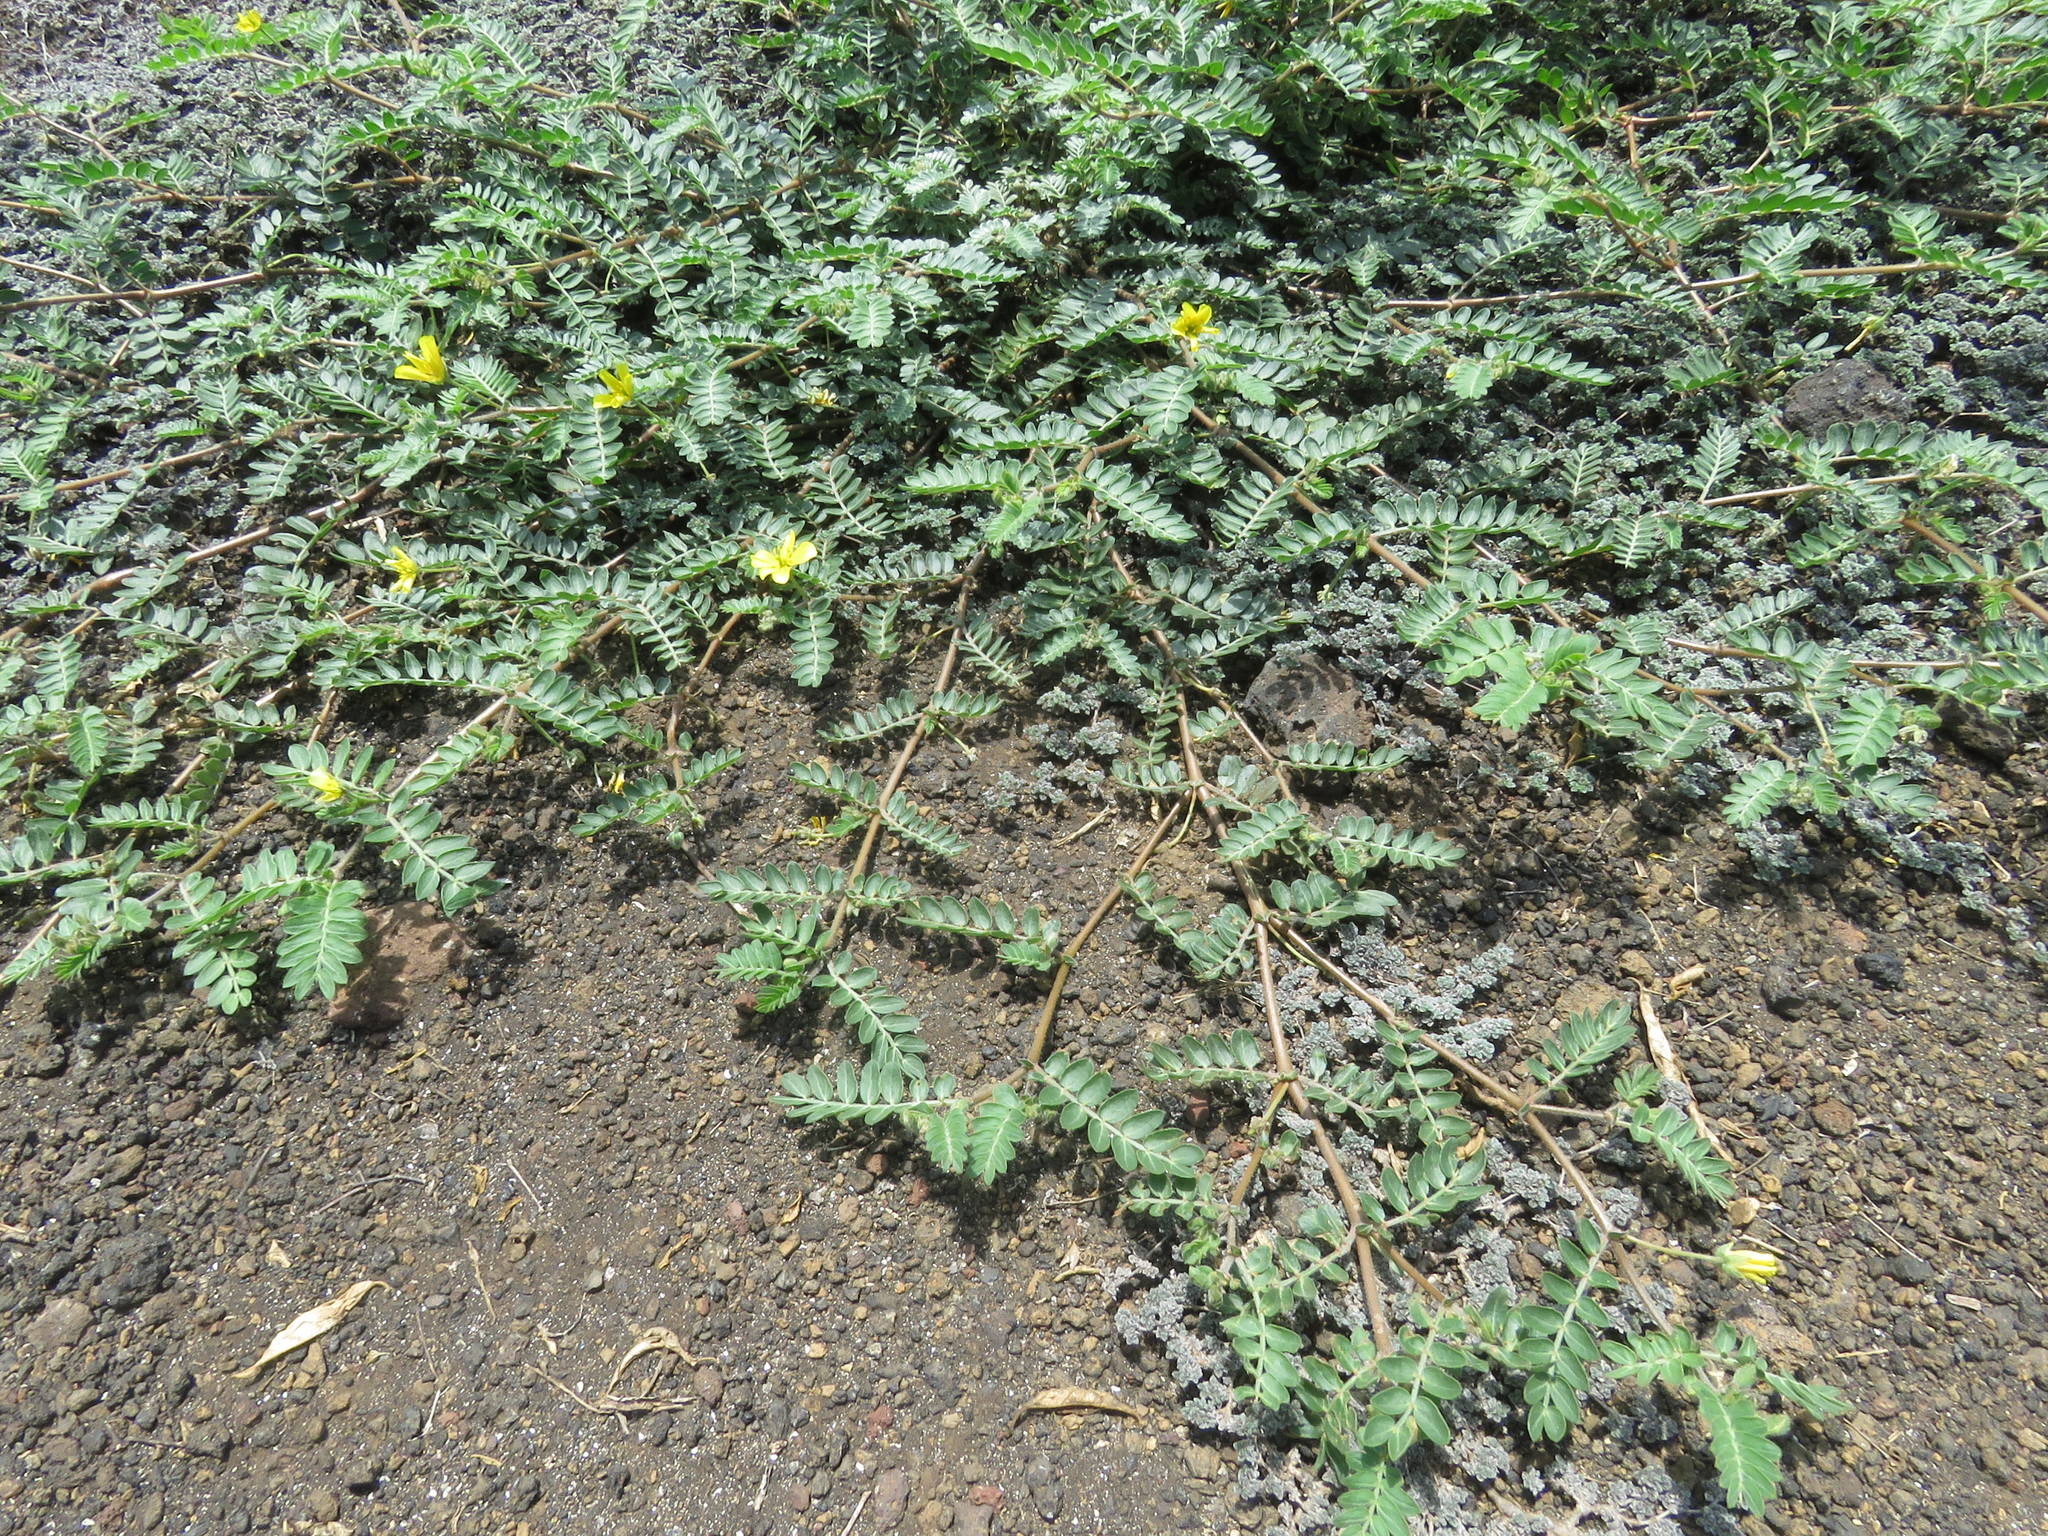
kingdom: Plantae
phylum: Tracheophyta
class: Magnoliopsida
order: Zygophyllales
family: Zygophyllaceae
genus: Tribulus
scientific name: Tribulus cistoides
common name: Jamaican feverplant
